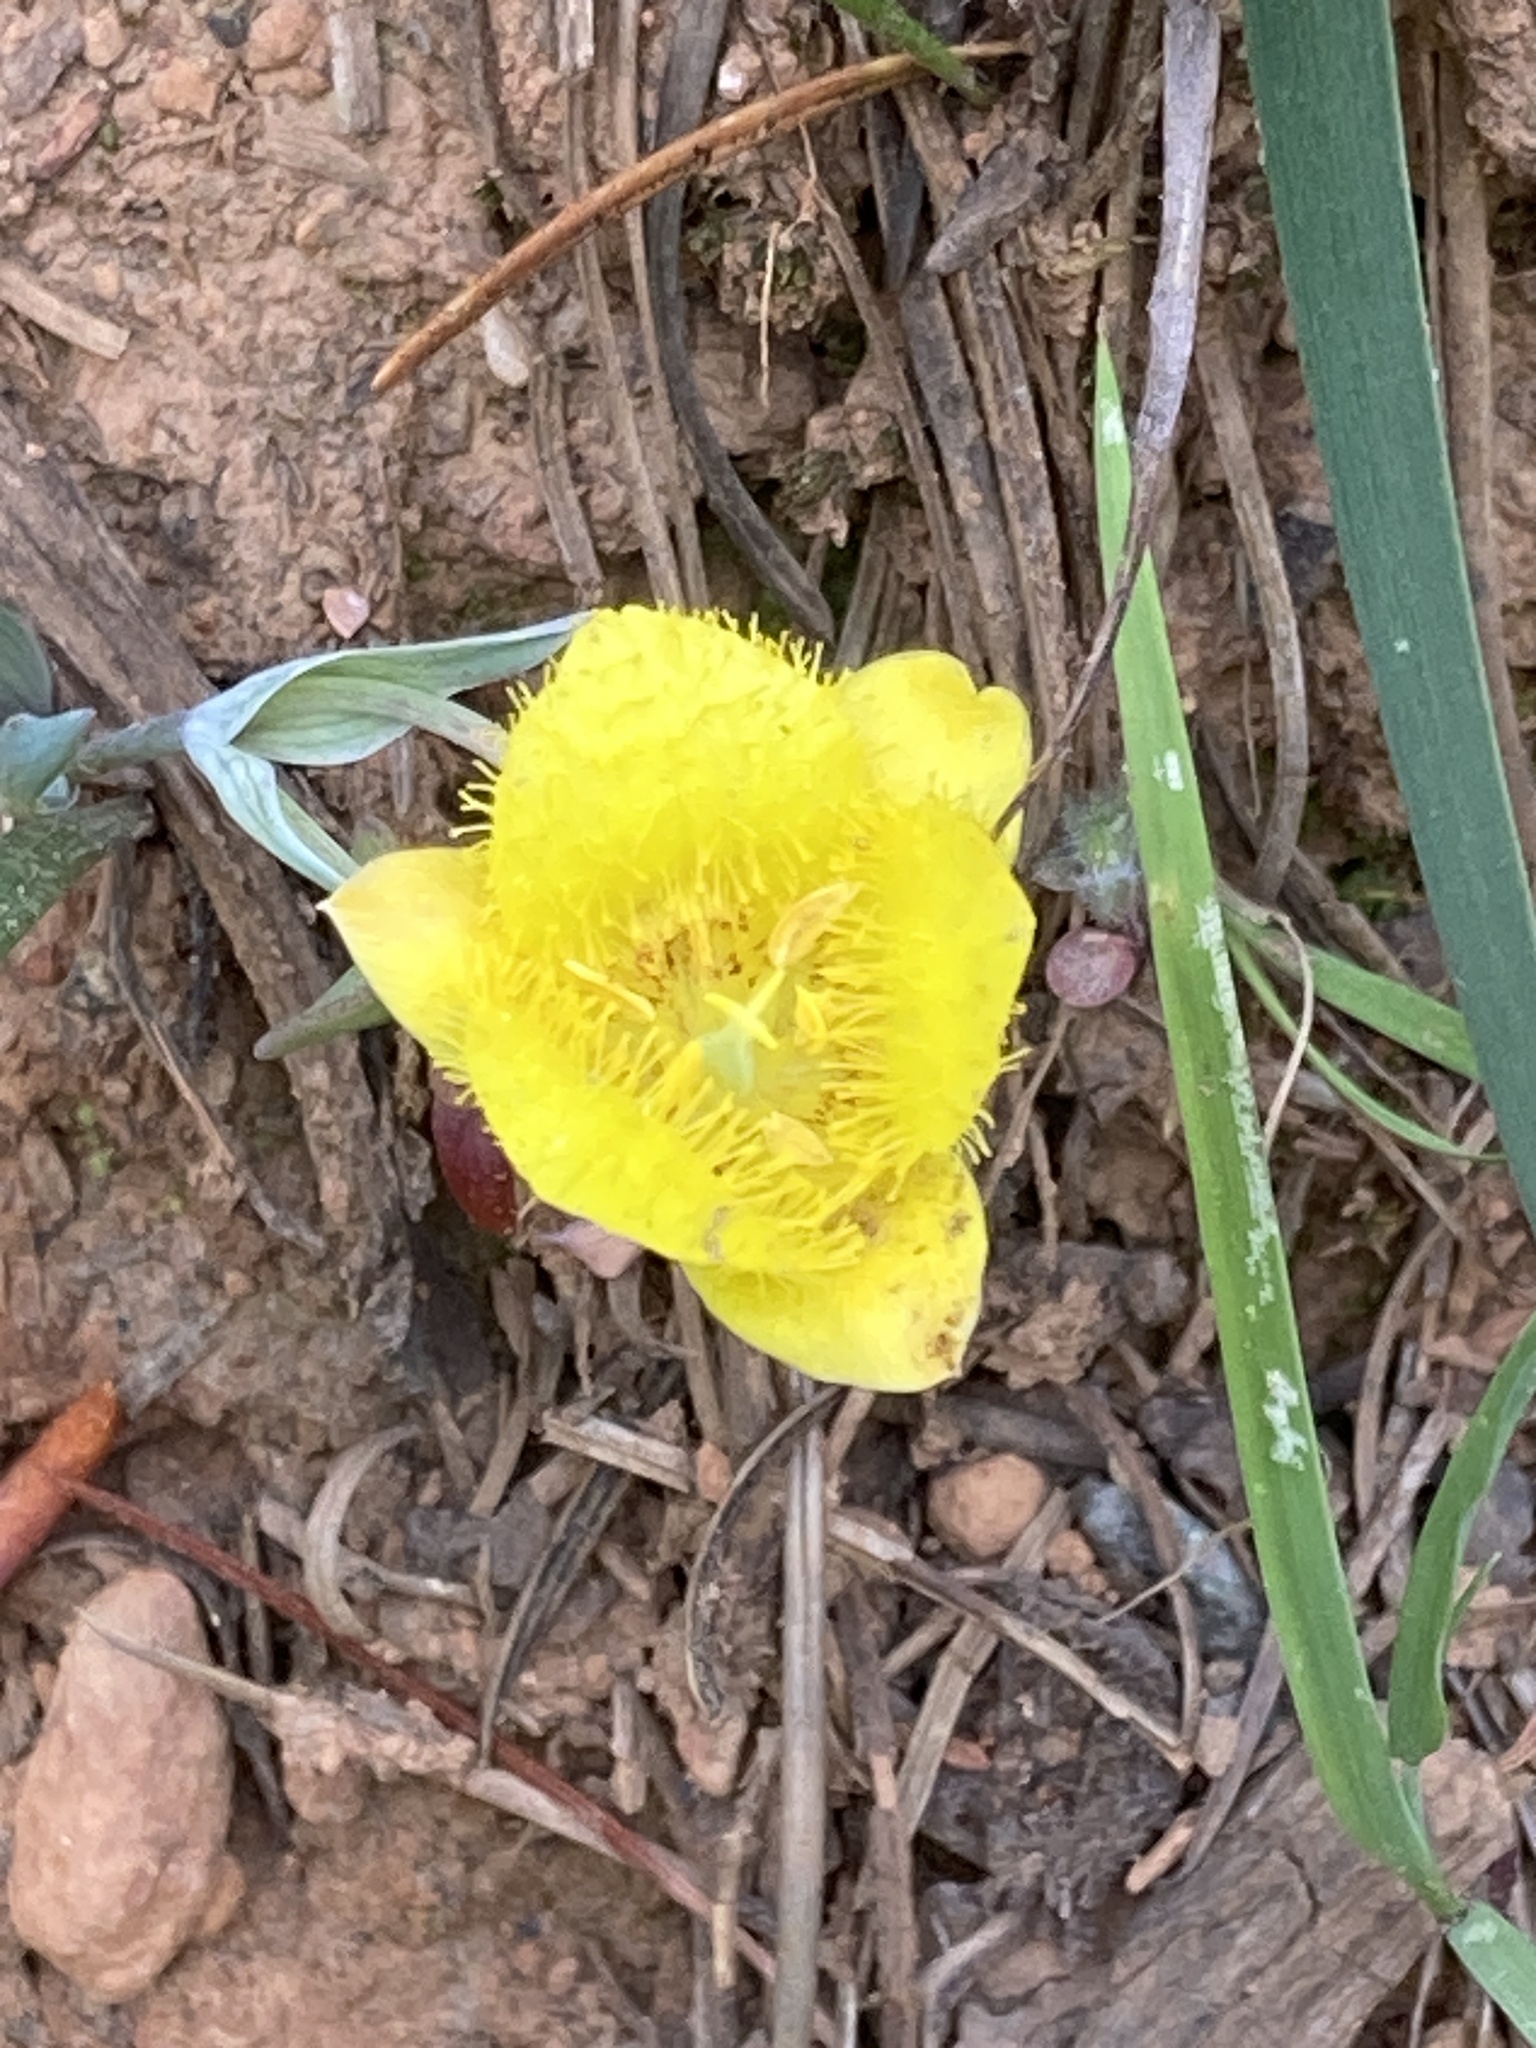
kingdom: Plantae
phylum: Tracheophyta
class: Liliopsida
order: Liliales
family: Liliaceae
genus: Calochortus
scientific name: Calochortus monophyllus
